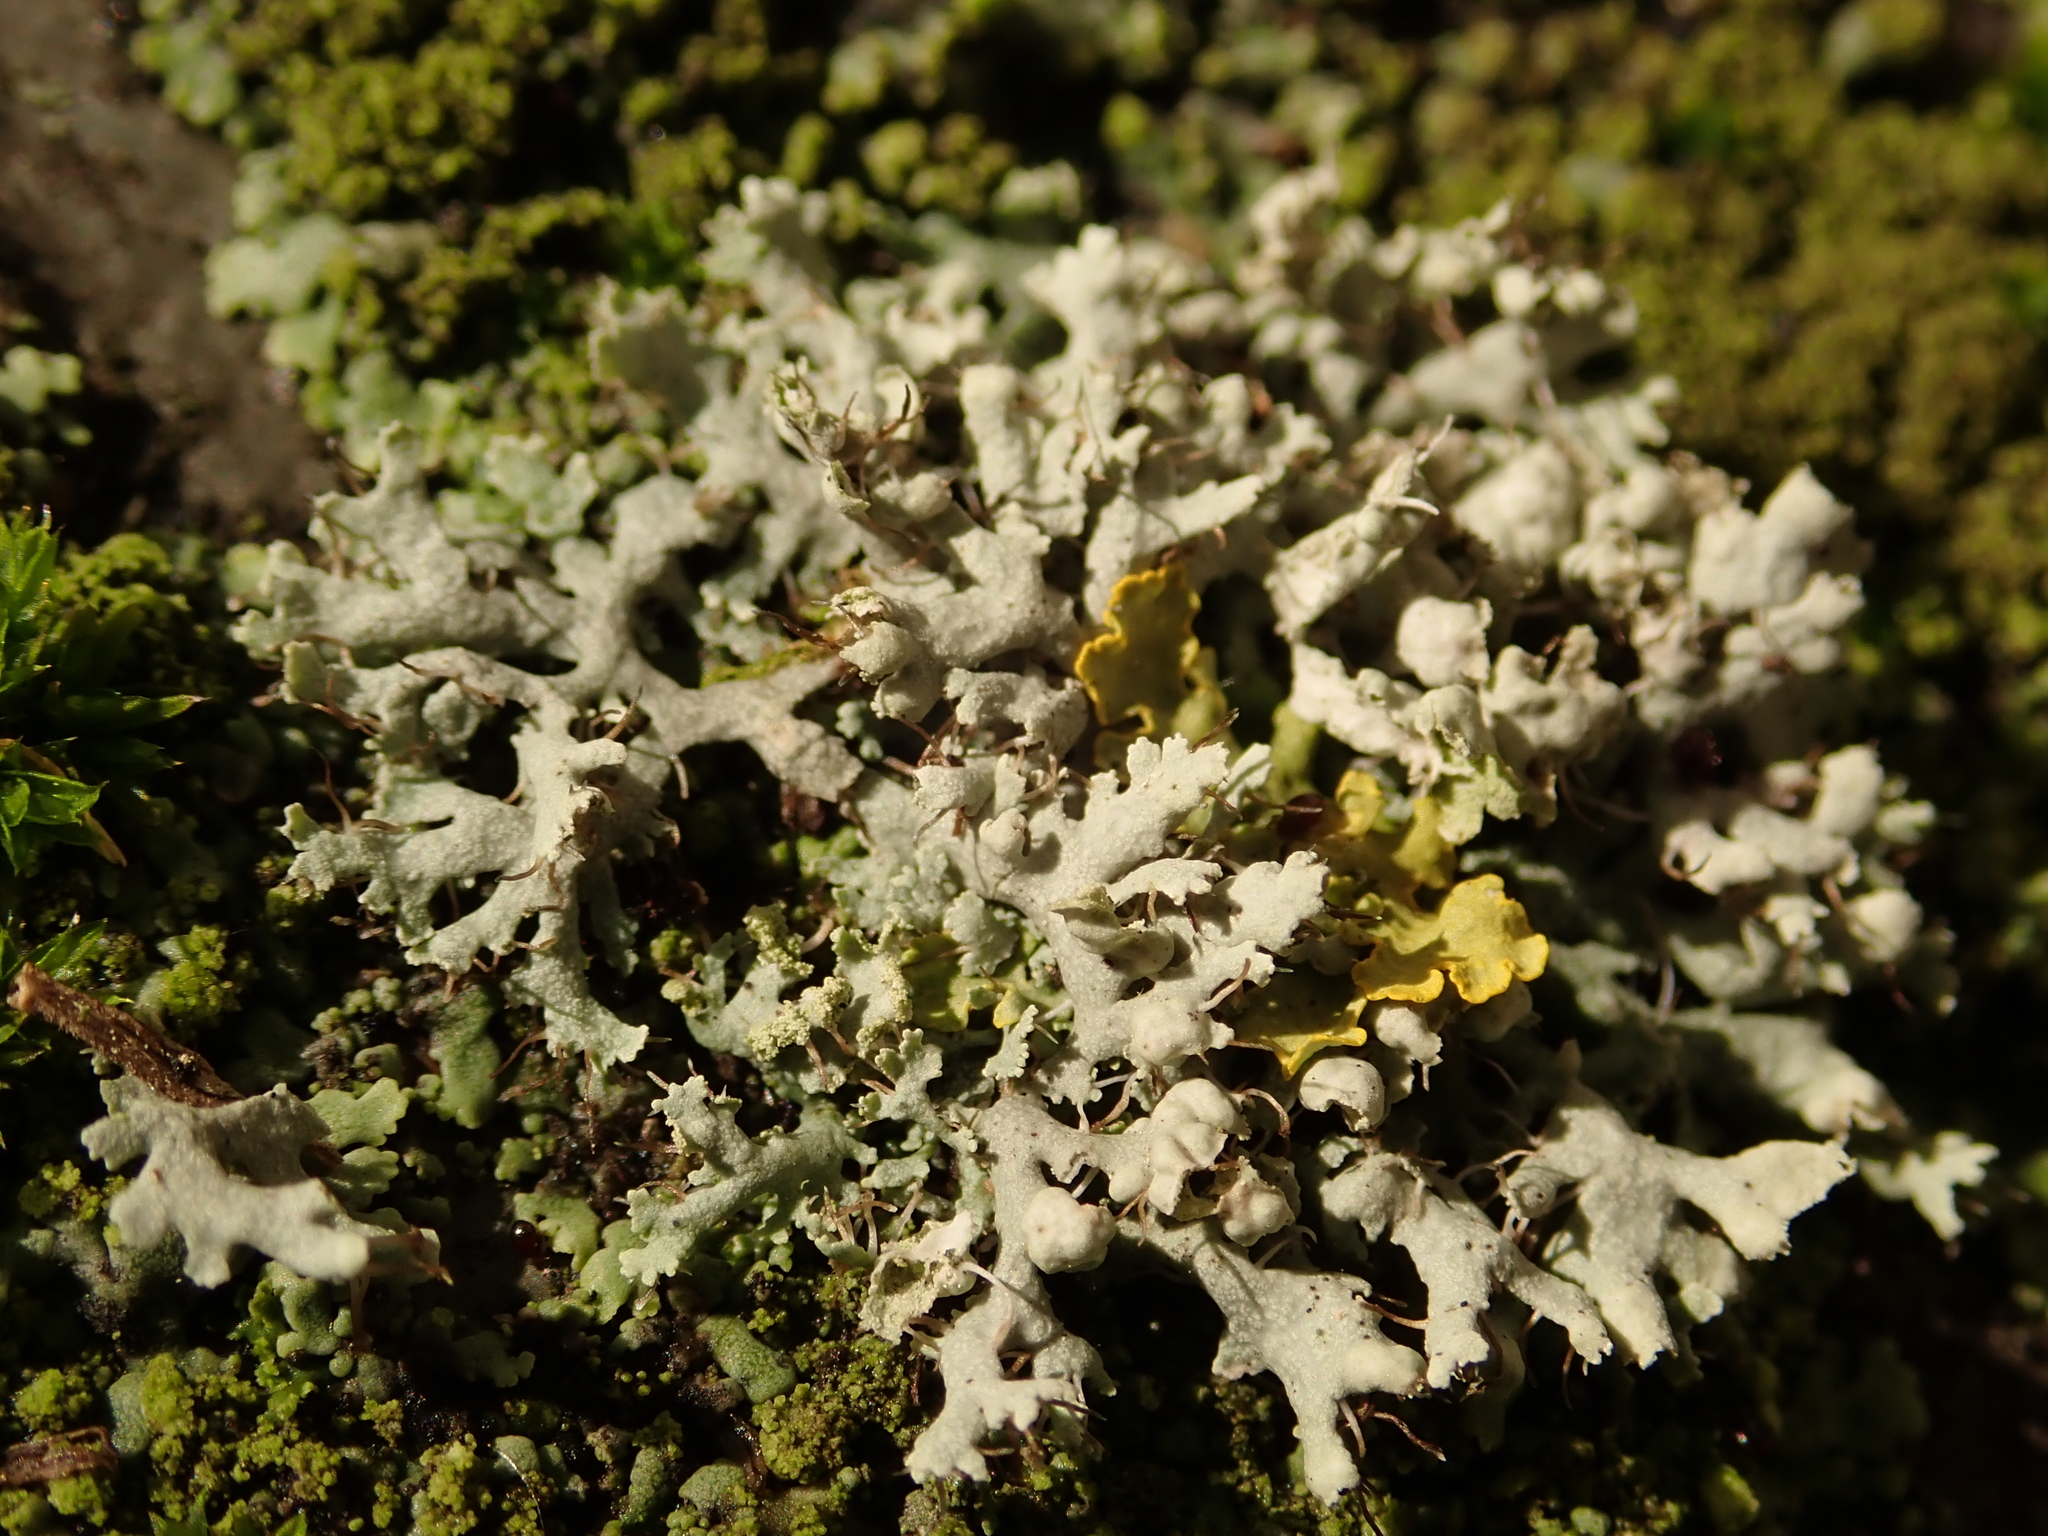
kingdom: Fungi
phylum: Ascomycota
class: Lecanoromycetes
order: Caliciales
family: Physciaceae
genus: Physcia
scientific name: Physcia adscendens
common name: Hooded rosette lichen
